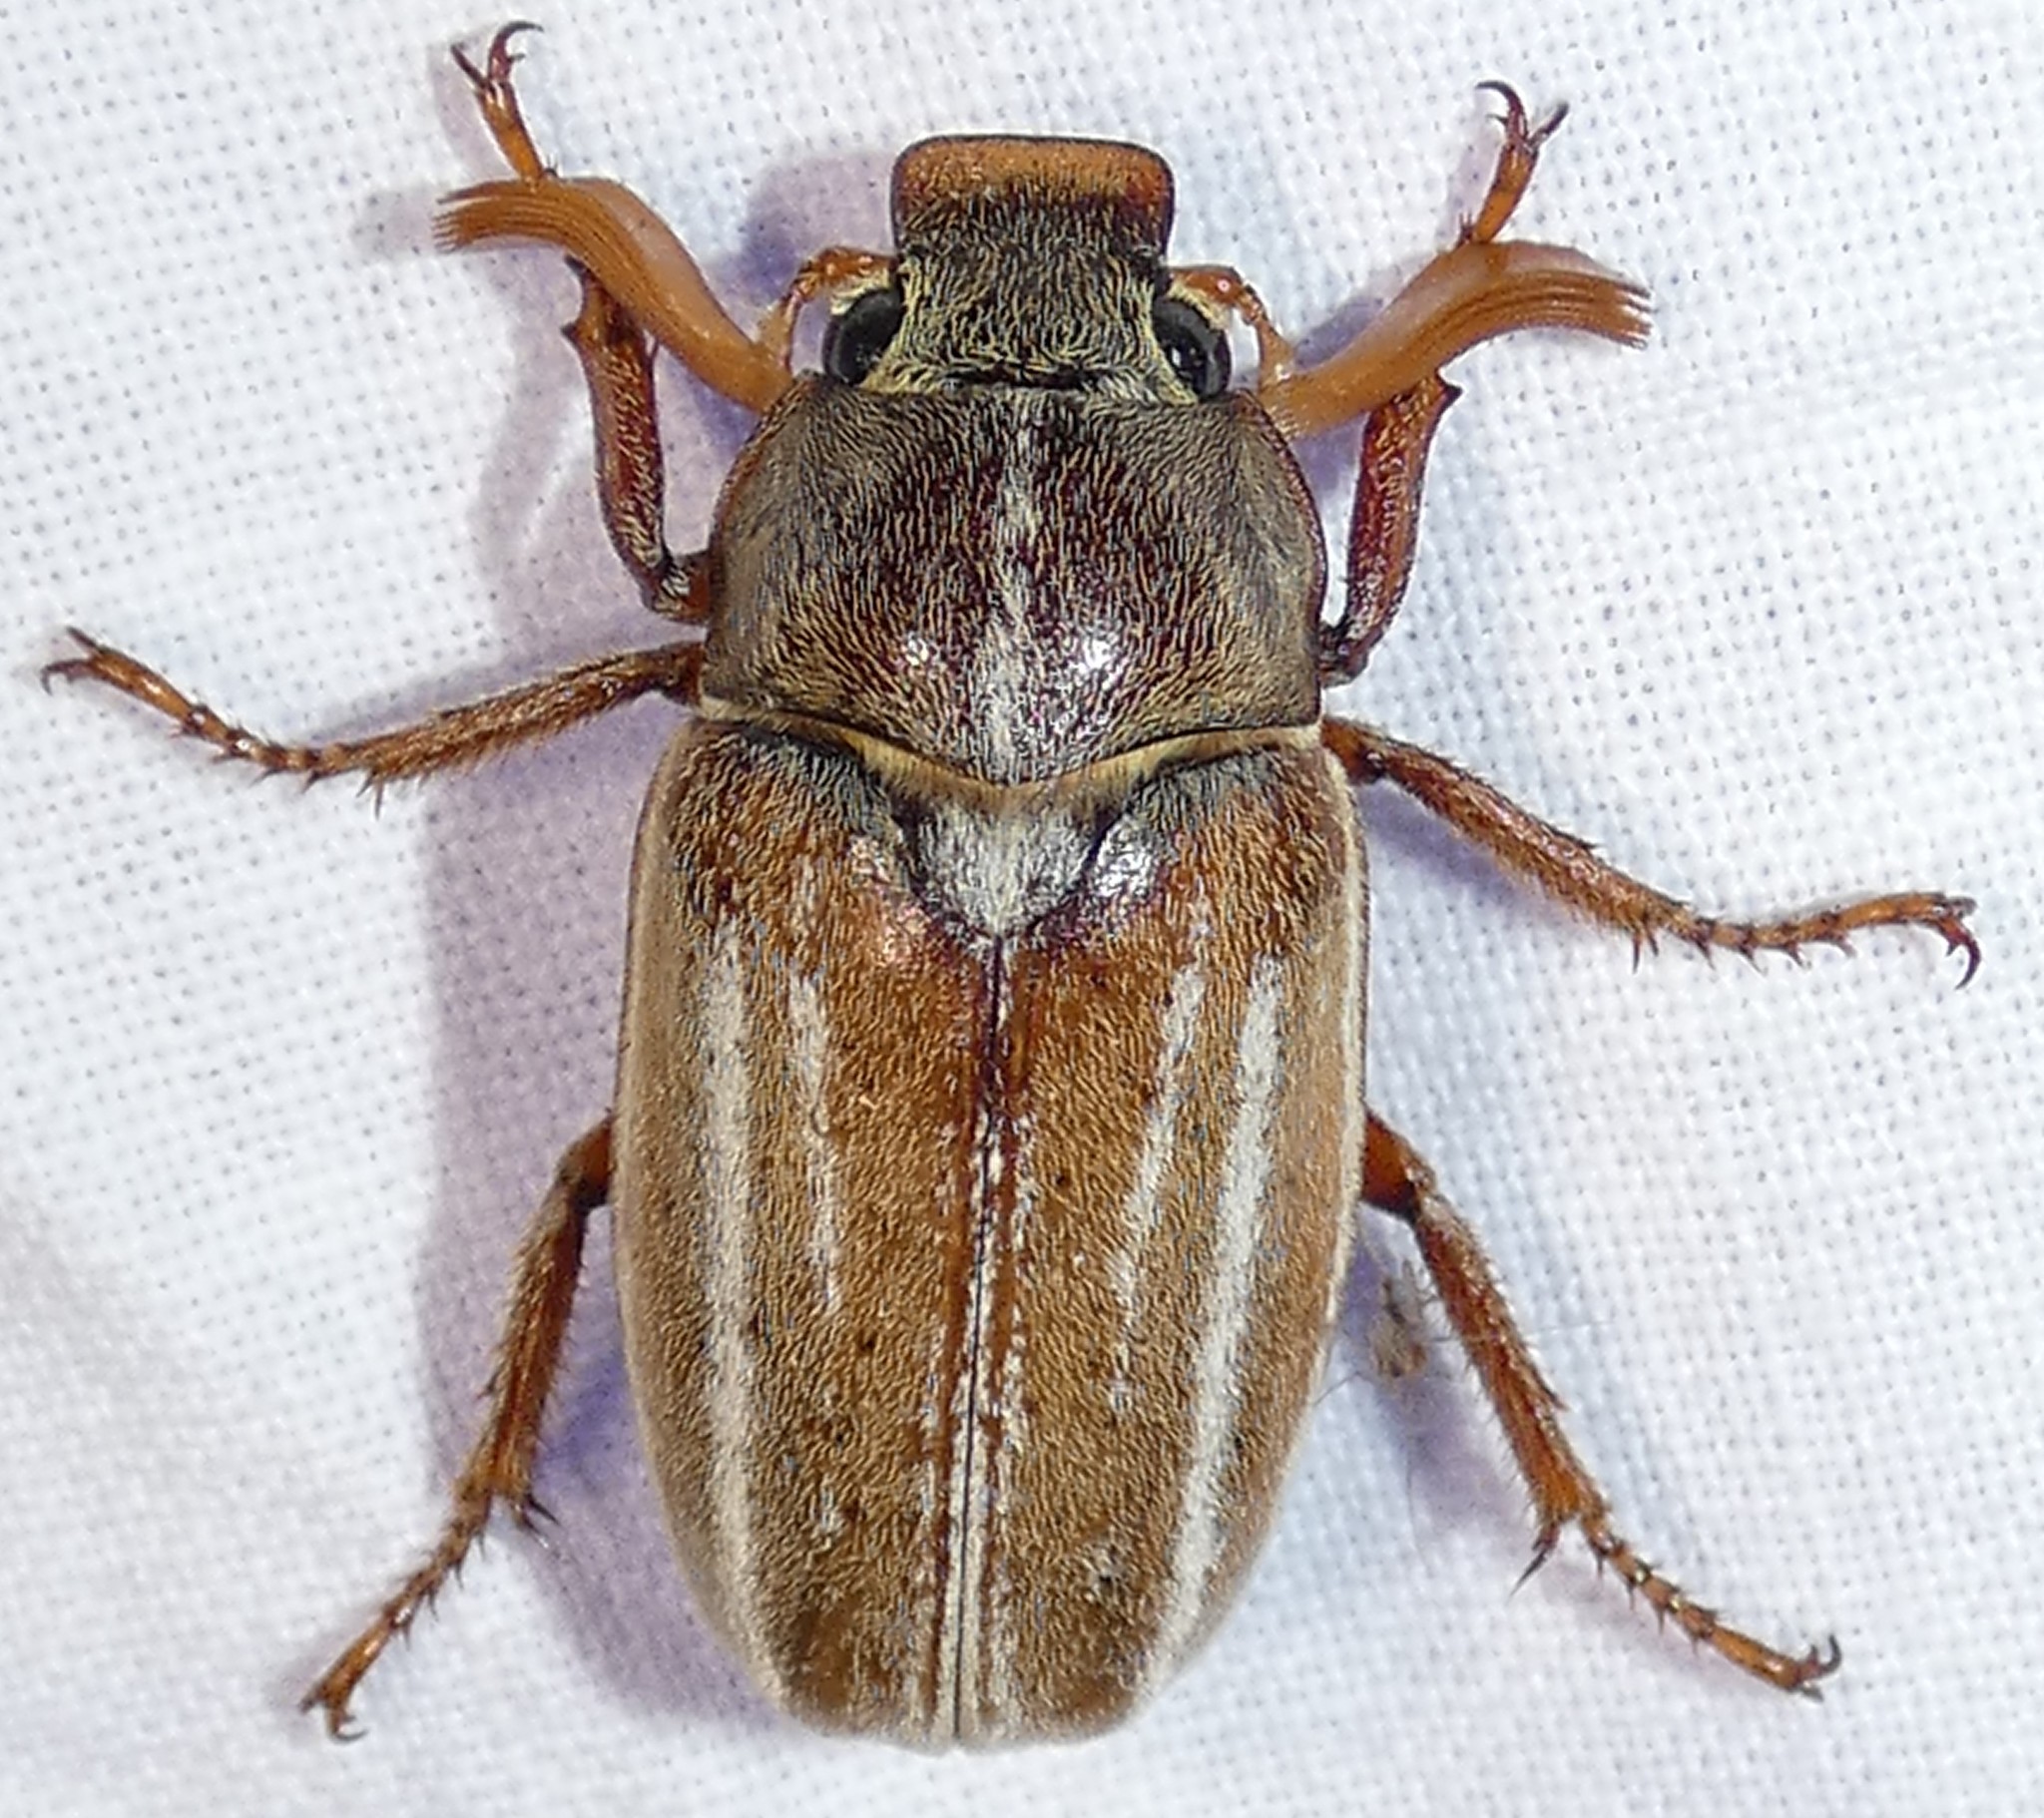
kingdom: Animalia
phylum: Arthropoda
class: Insecta
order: Coleoptera
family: Scarabaeidae
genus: Polyphylla
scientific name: Polyphylla occidentalis
